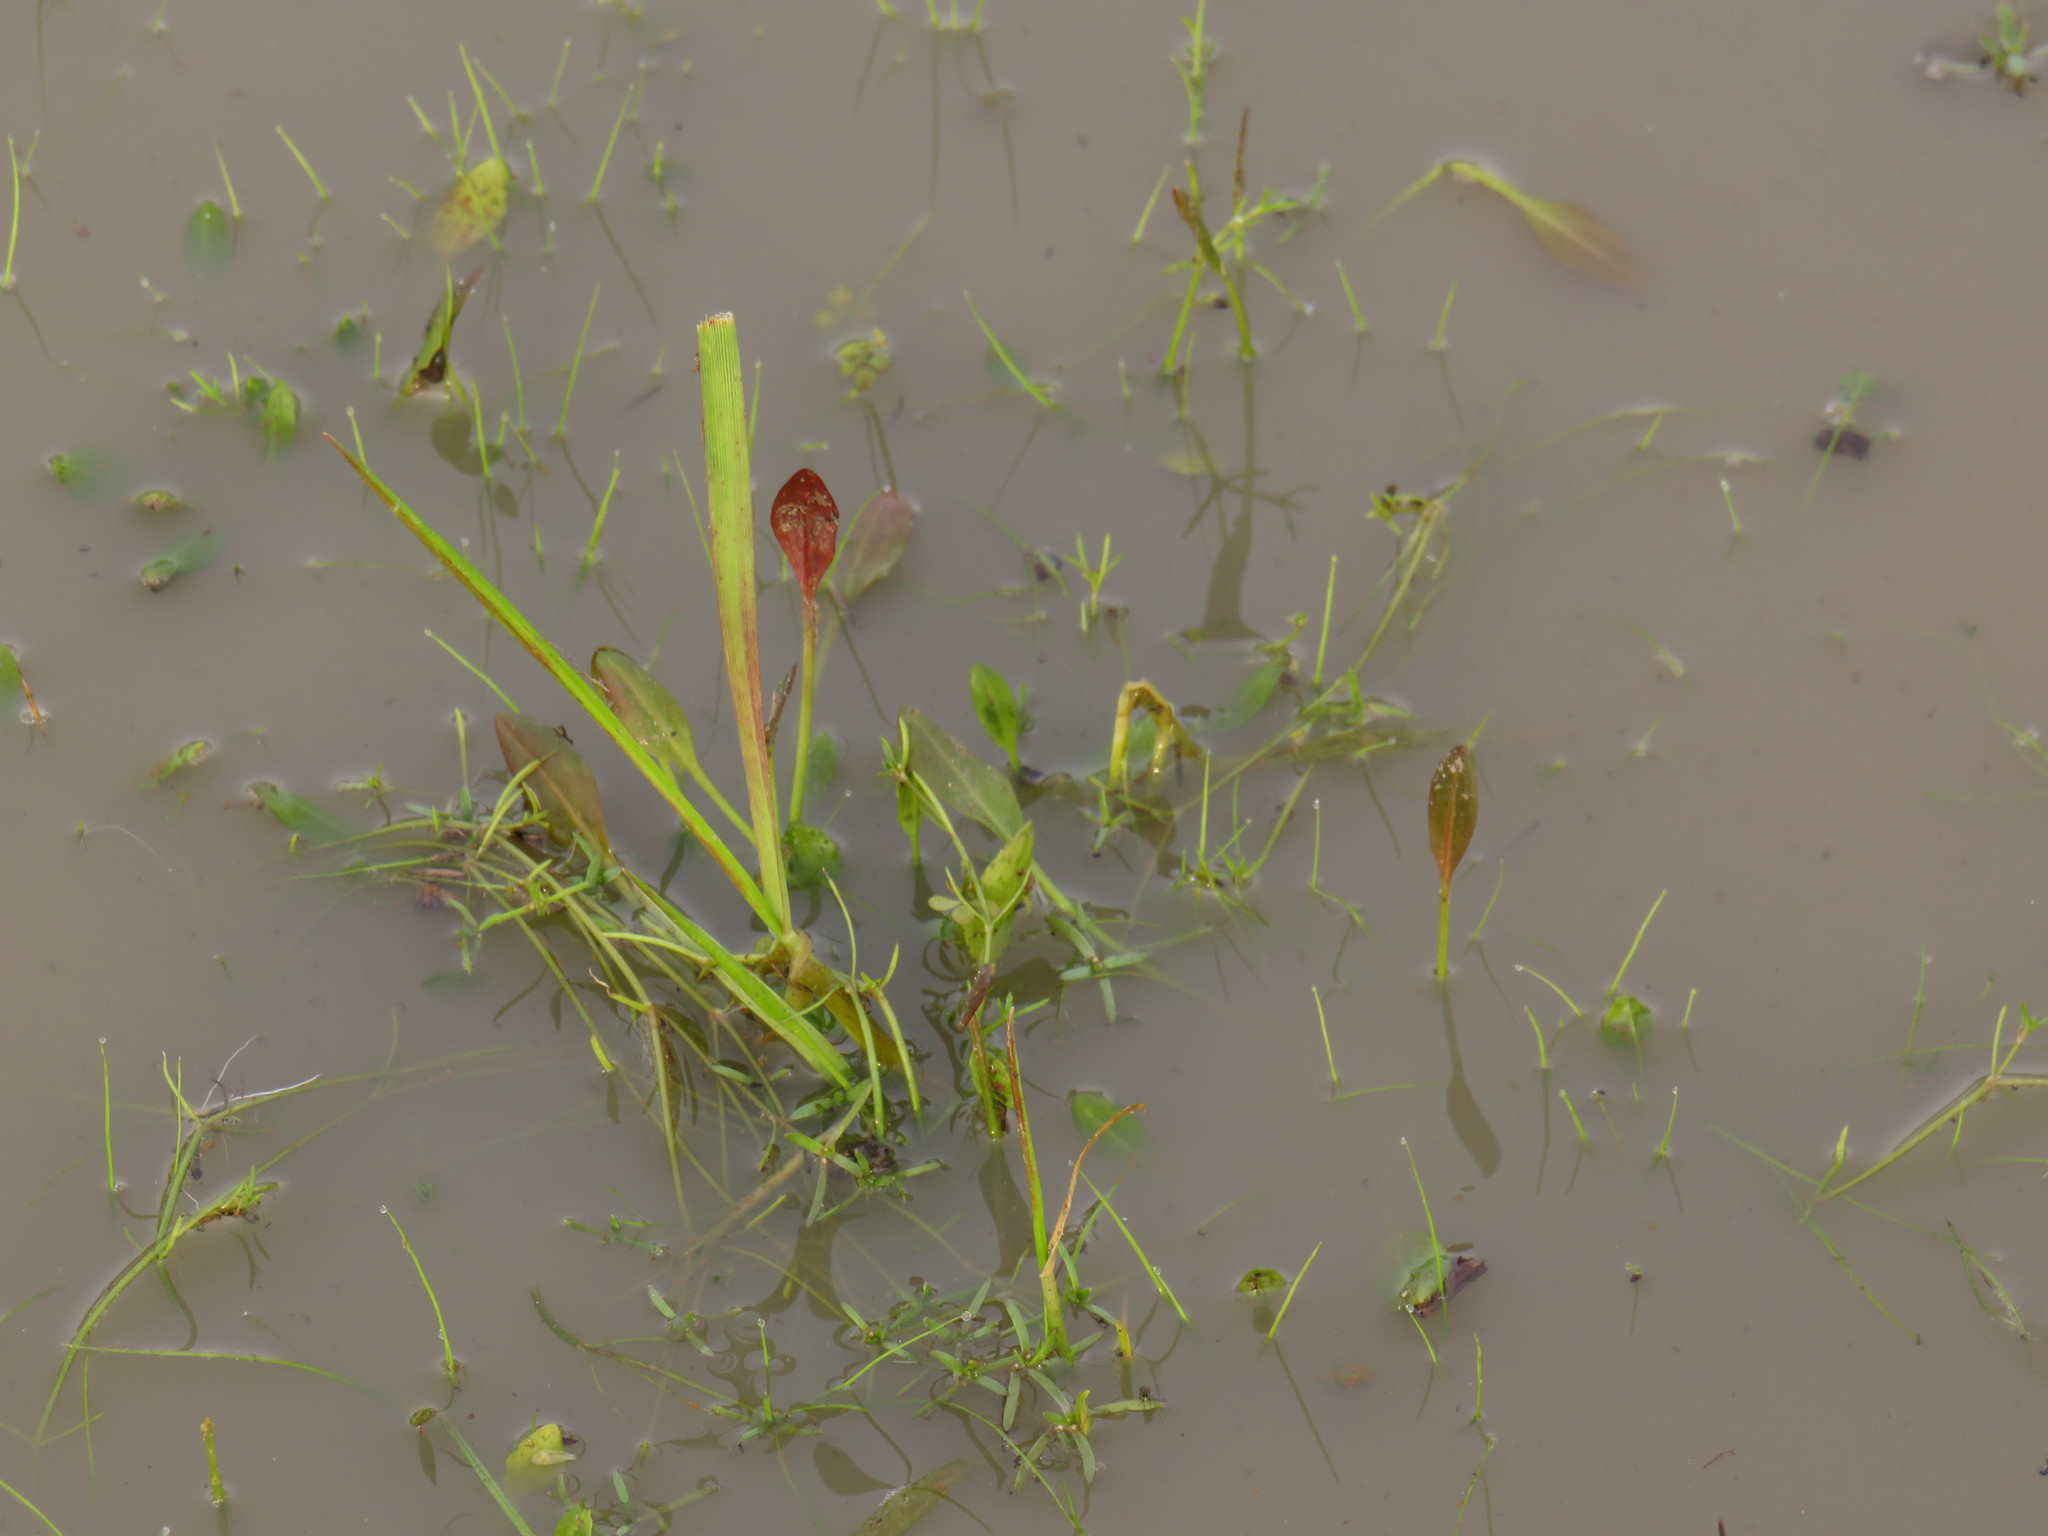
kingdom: Plantae
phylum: Tracheophyta
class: Magnoliopsida
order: Saxifragales
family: Crassulaceae
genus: Crassula
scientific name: Crassula natans
